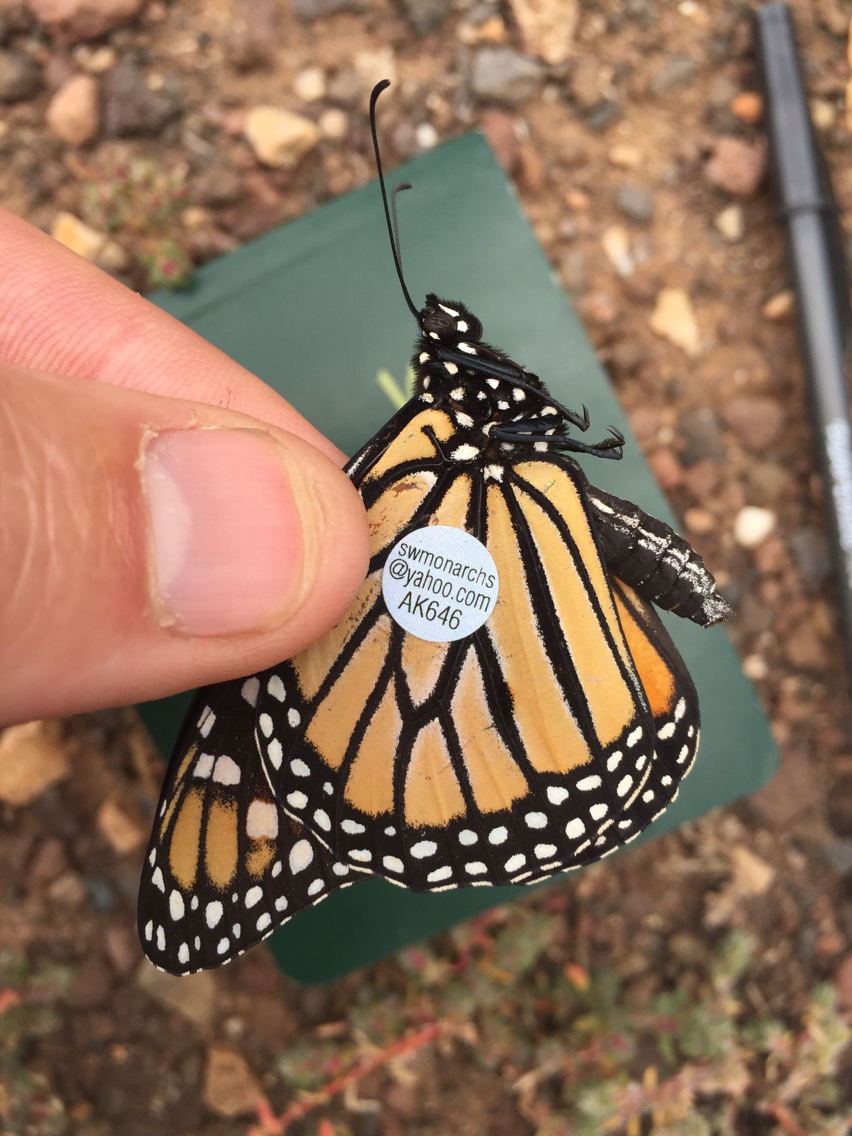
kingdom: Animalia
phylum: Arthropoda
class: Insecta
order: Lepidoptera
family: Nymphalidae
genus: Danaus
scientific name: Danaus plexippus
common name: Monarch
